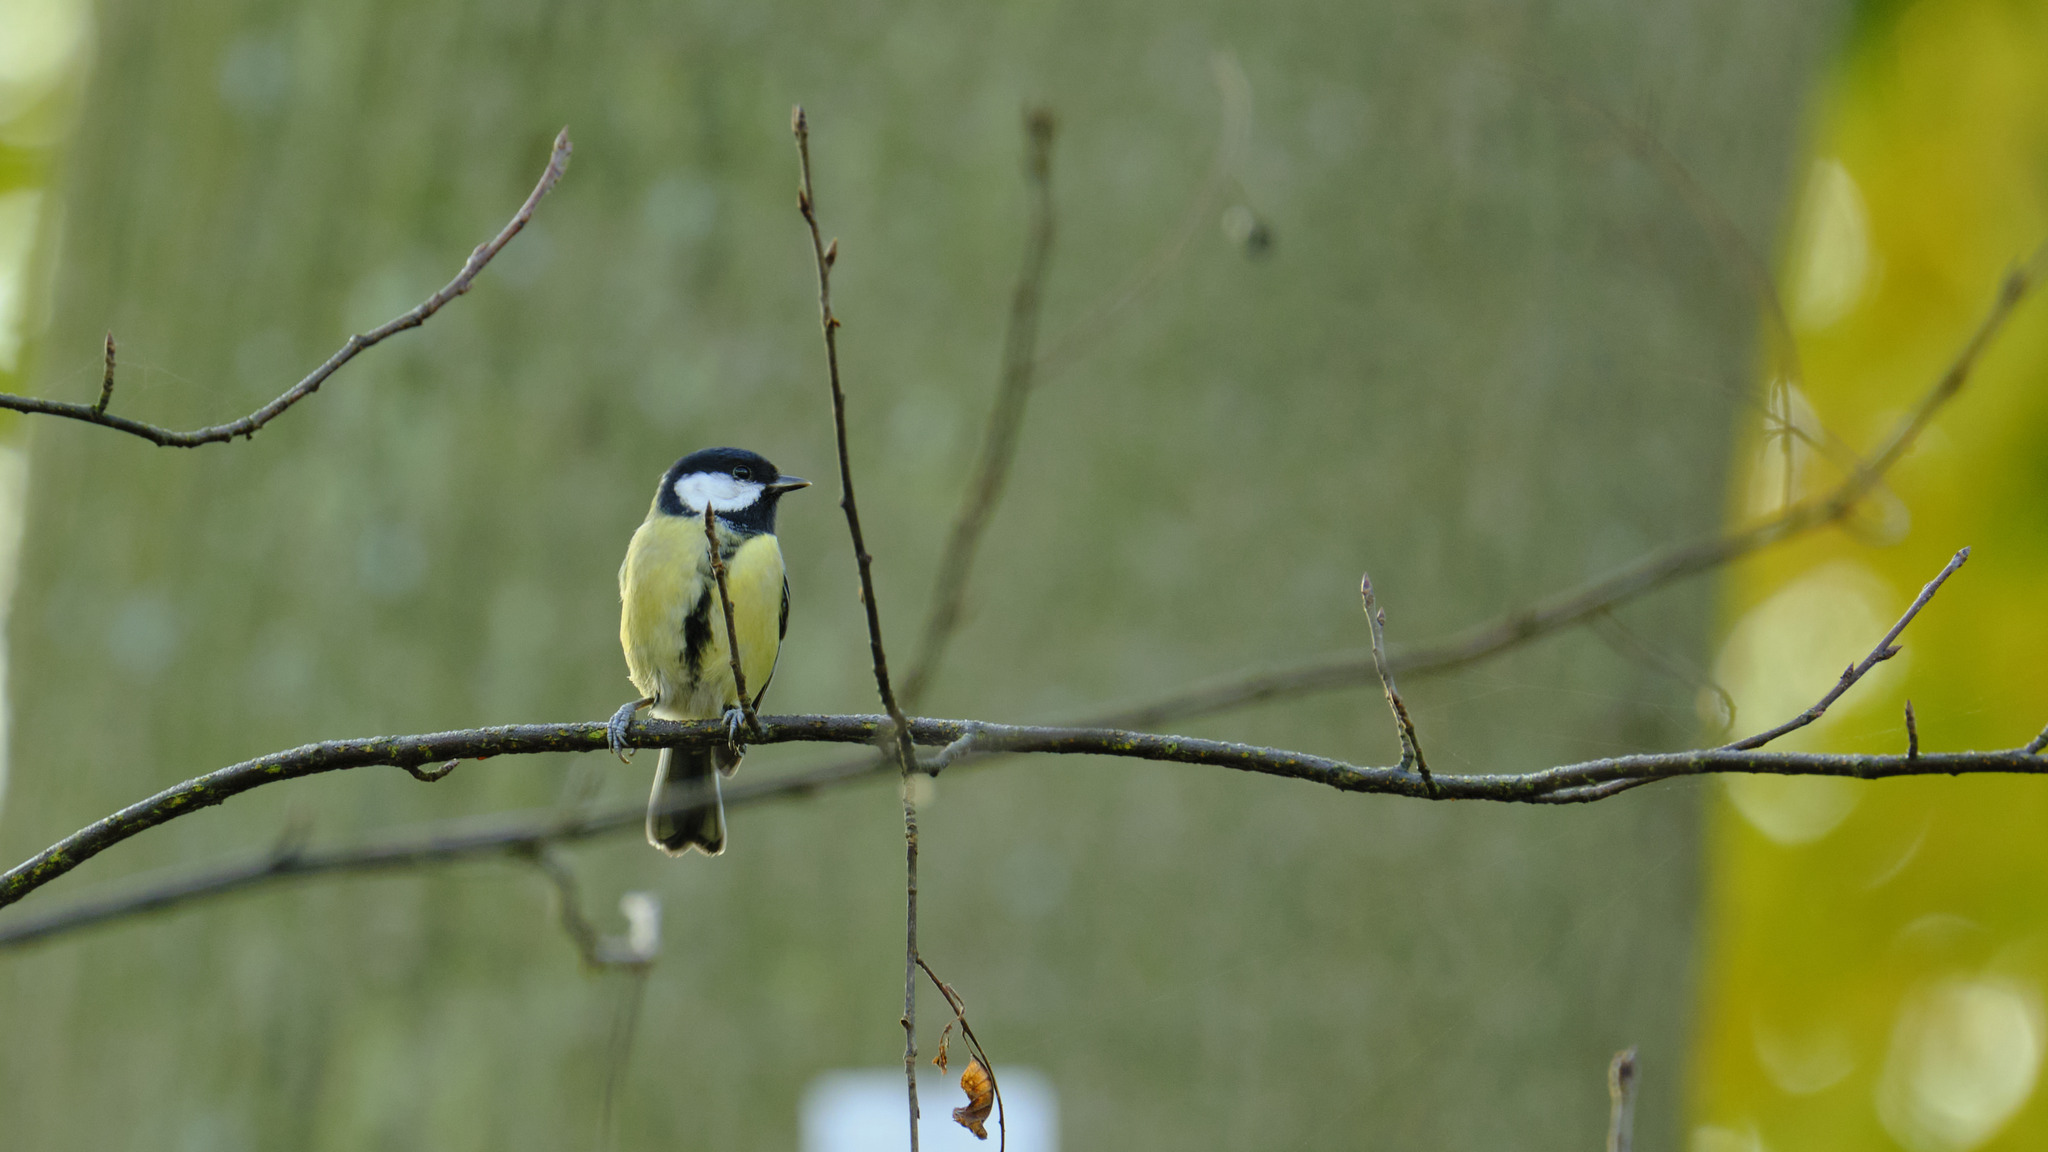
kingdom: Animalia
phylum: Chordata
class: Aves
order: Passeriformes
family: Paridae
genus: Parus
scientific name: Parus major
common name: Great tit
